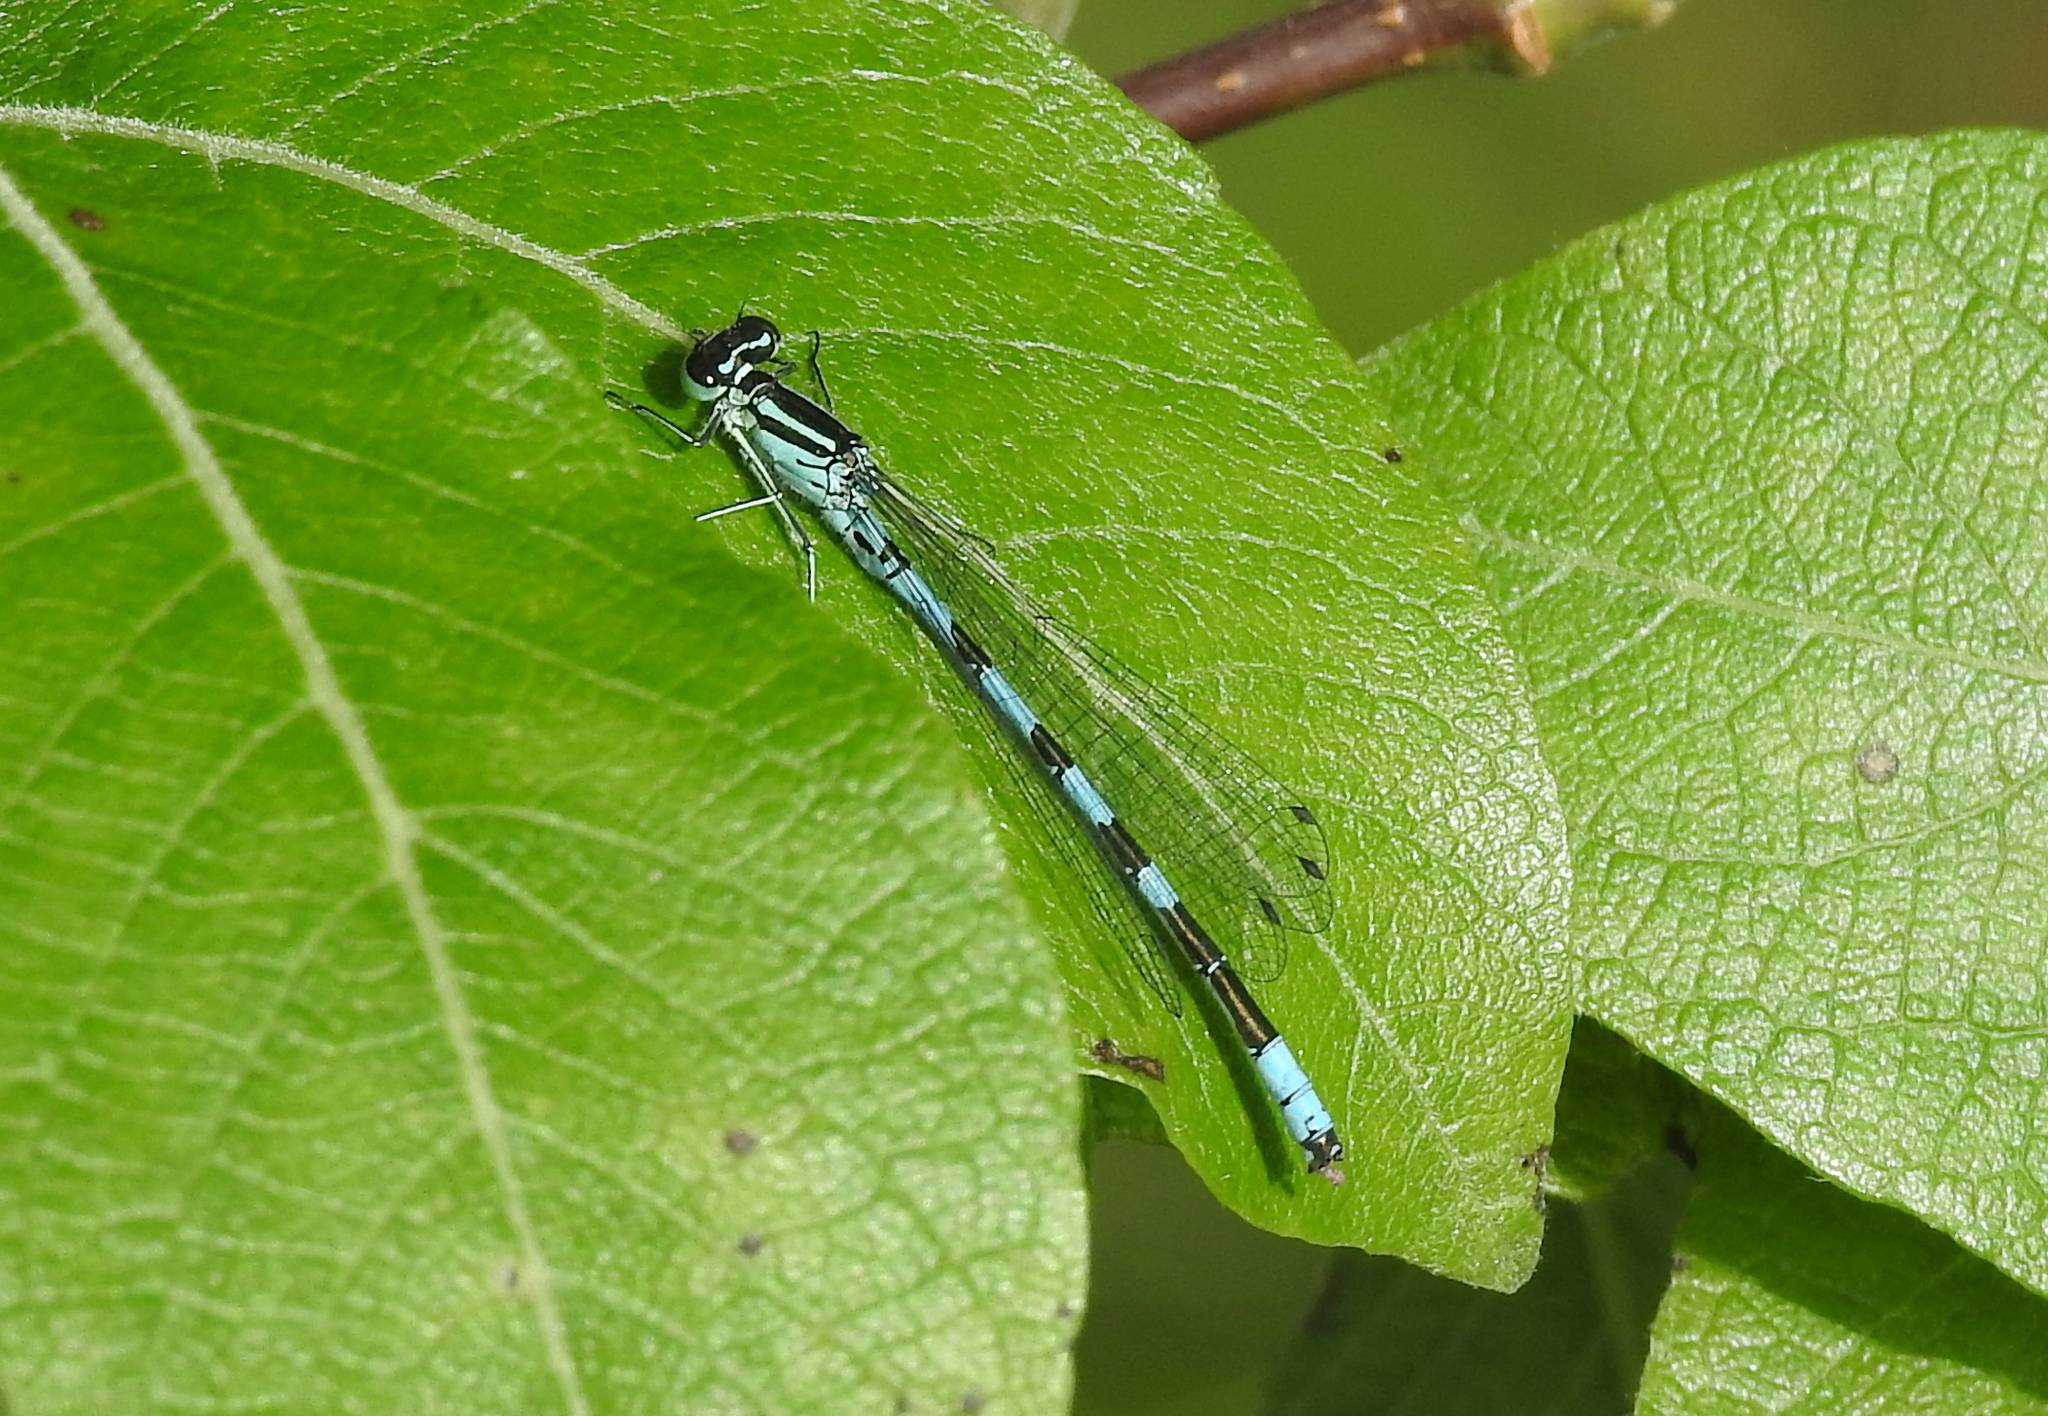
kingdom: Animalia
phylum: Arthropoda
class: Insecta
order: Odonata
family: Coenagrionidae
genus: Coenagrion
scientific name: Coenagrion hastulatum
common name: Spearhead bluet
